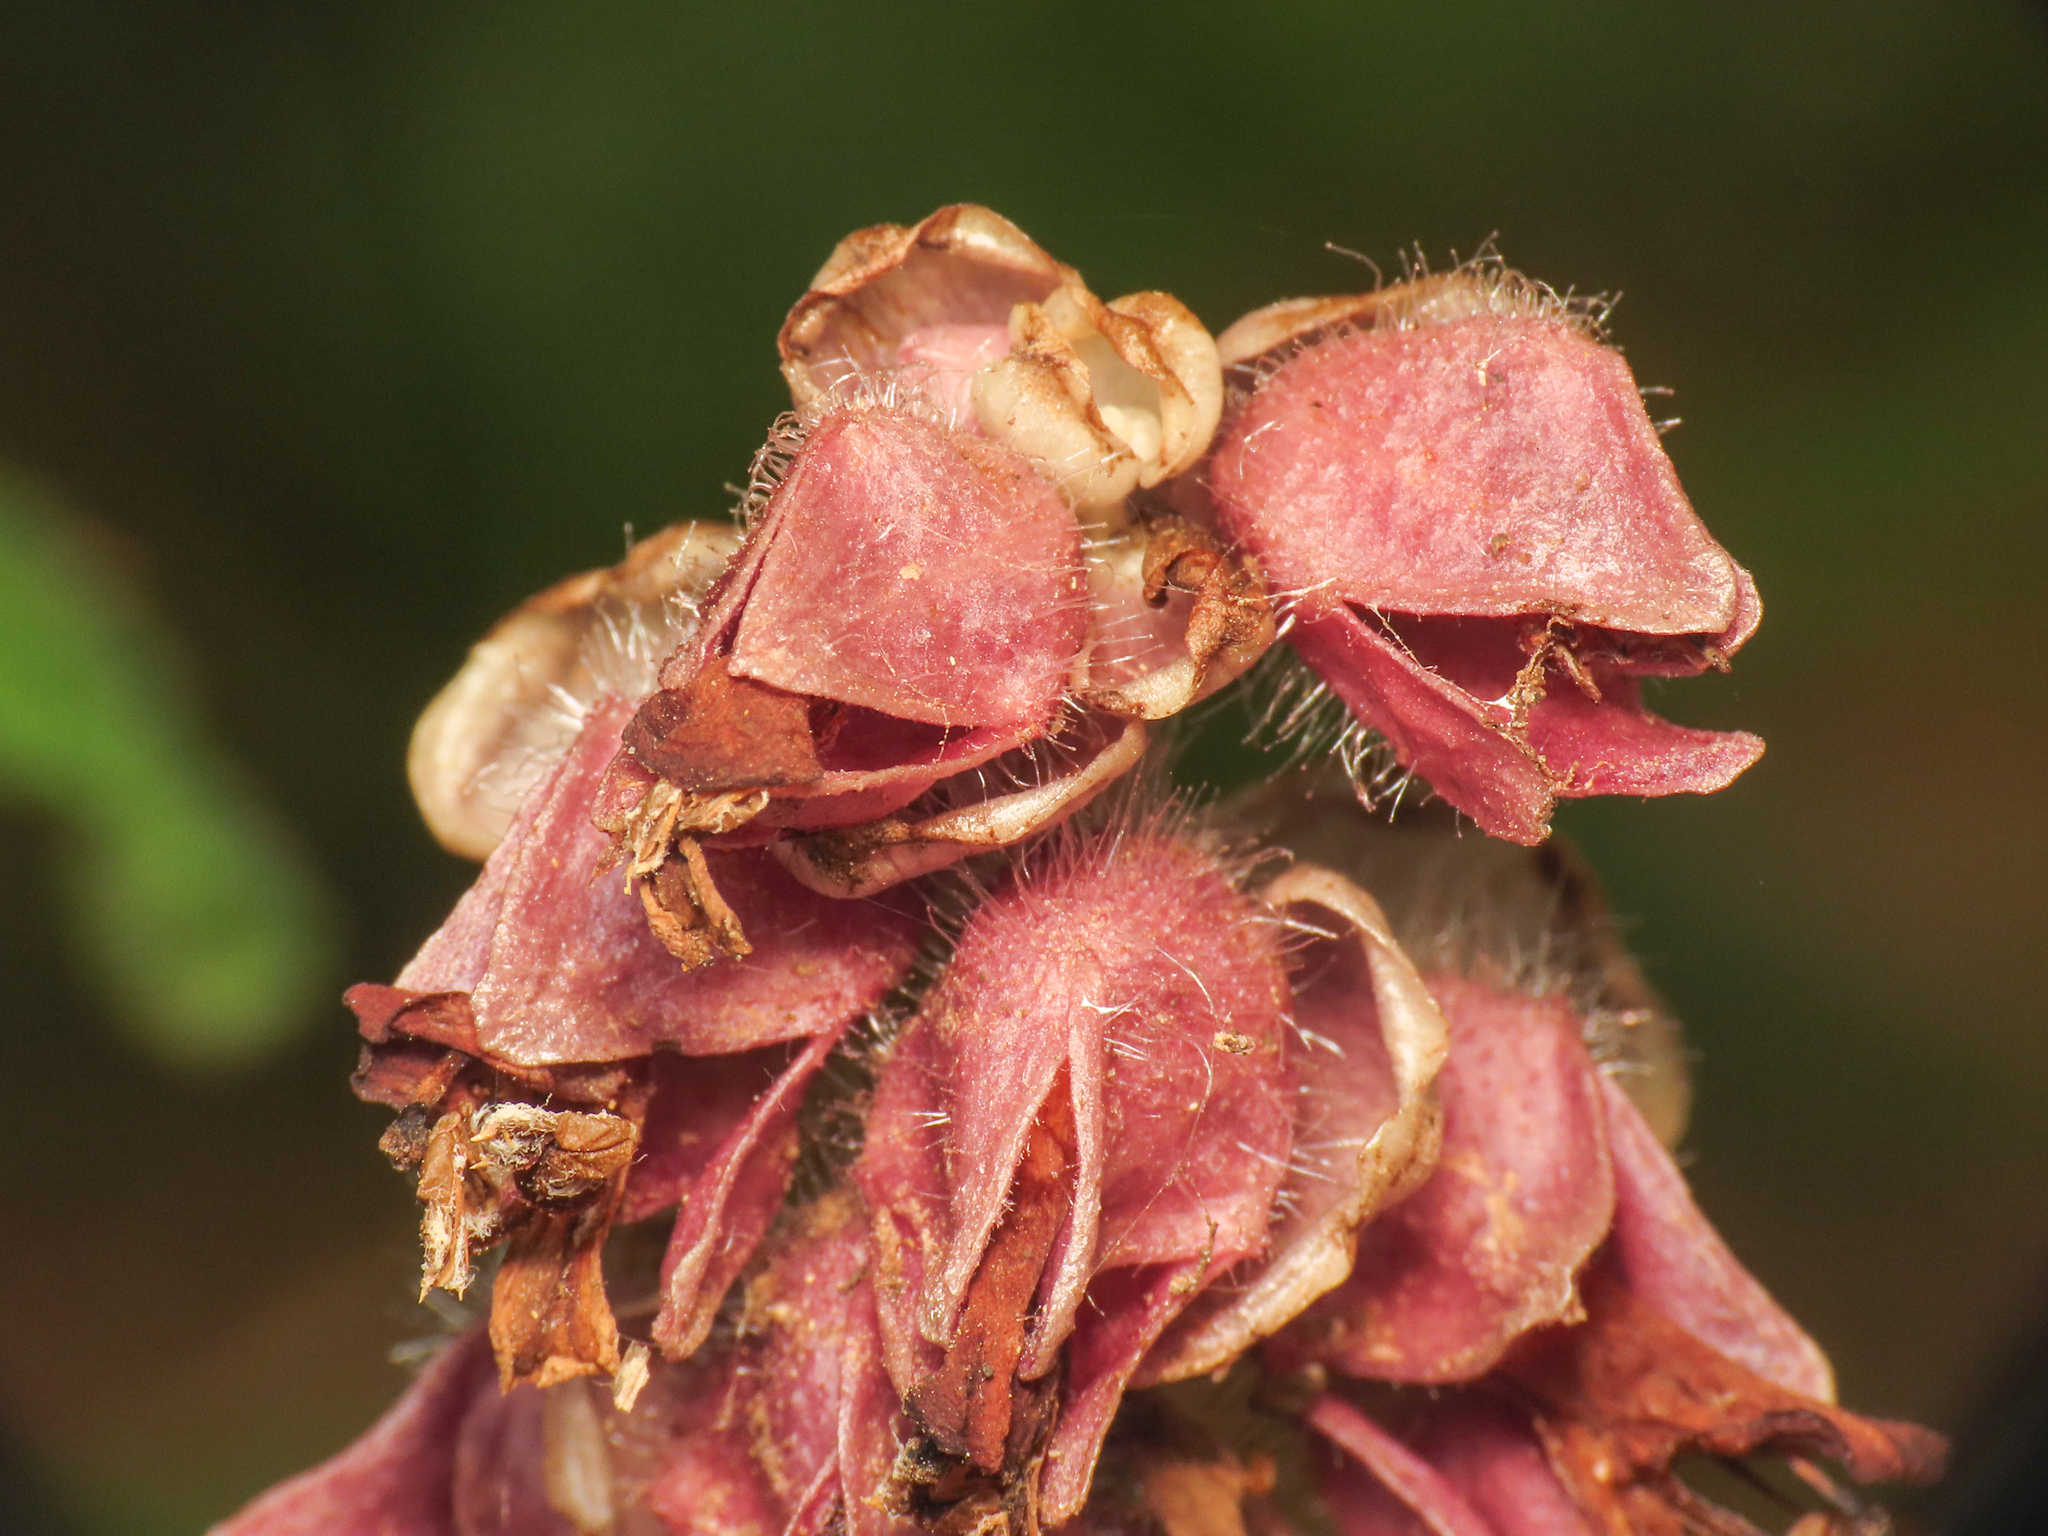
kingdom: Plantae
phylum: Tracheophyta
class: Magnoliopsida
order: Lamiales
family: Orobanchaceae
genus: Lathraea
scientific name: Lathraea squamaria
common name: Toothwort
